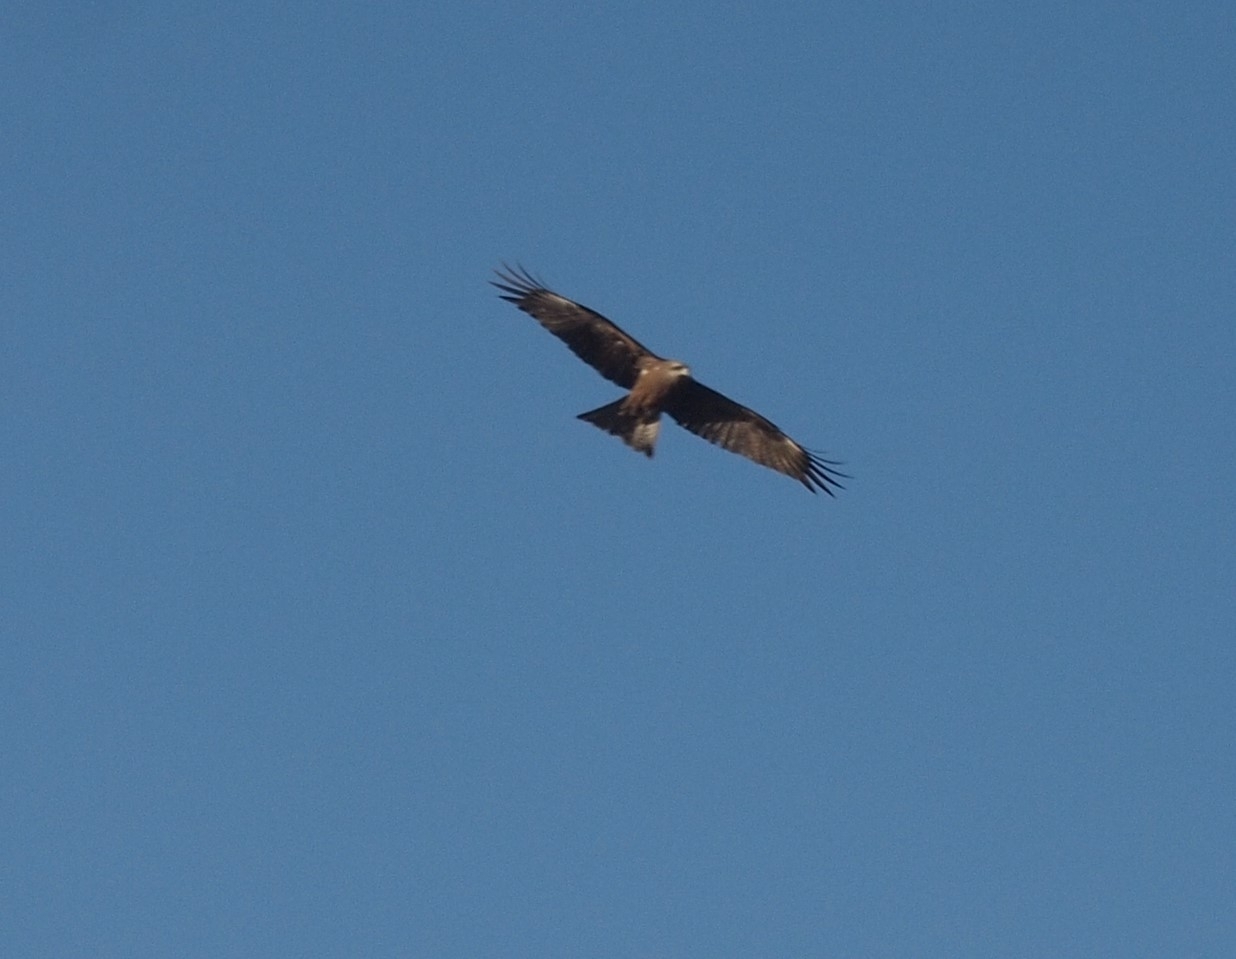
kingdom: Animalia
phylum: Chordata
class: Aves
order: Accipitriformes
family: Accipitridae
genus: Milvus
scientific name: Milvus migrans
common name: Black kite
